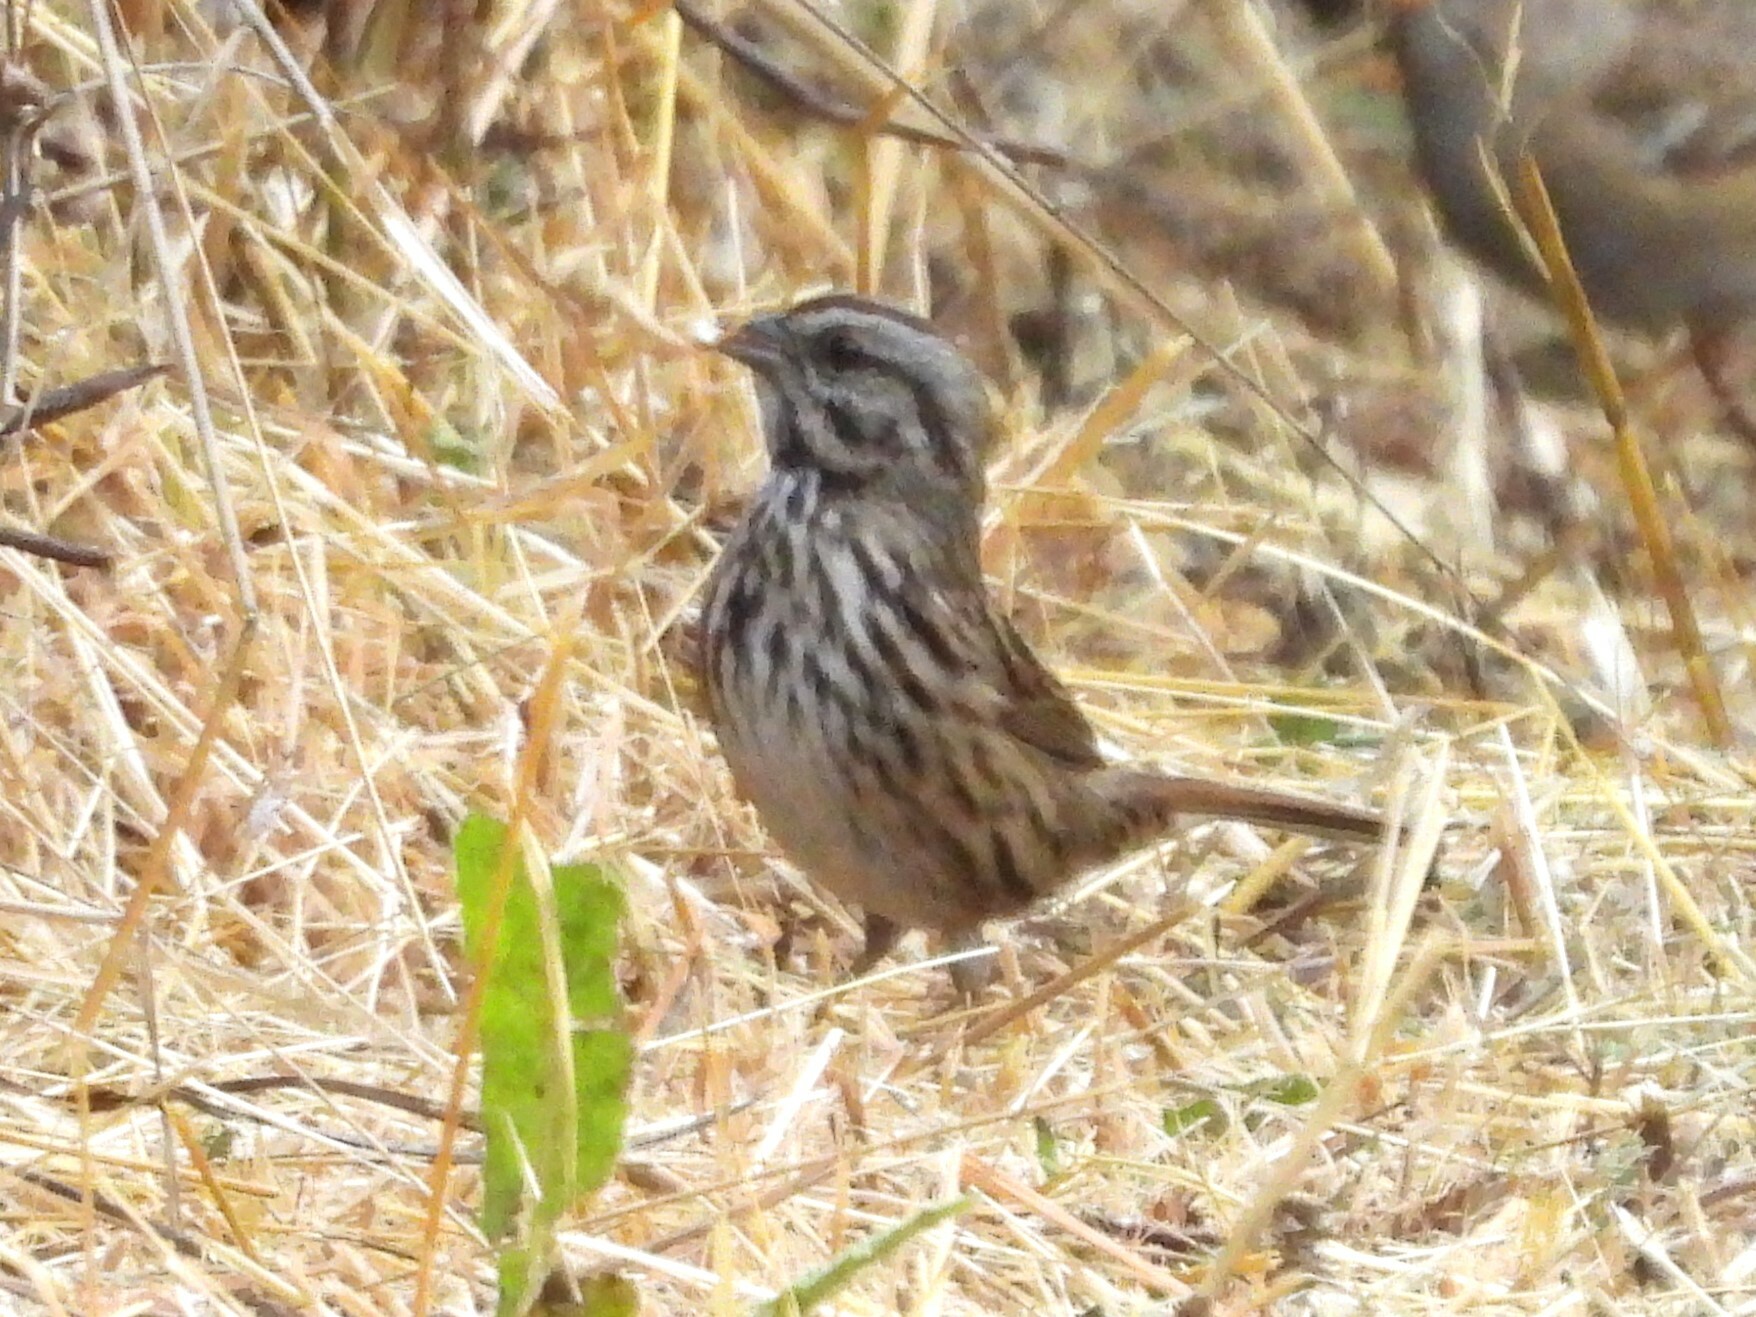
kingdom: Animalia
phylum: Chordata
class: Aves
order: Passeriformes
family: Passerellidae
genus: Melospiza
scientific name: Melospiza melodia
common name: Song sparrow
